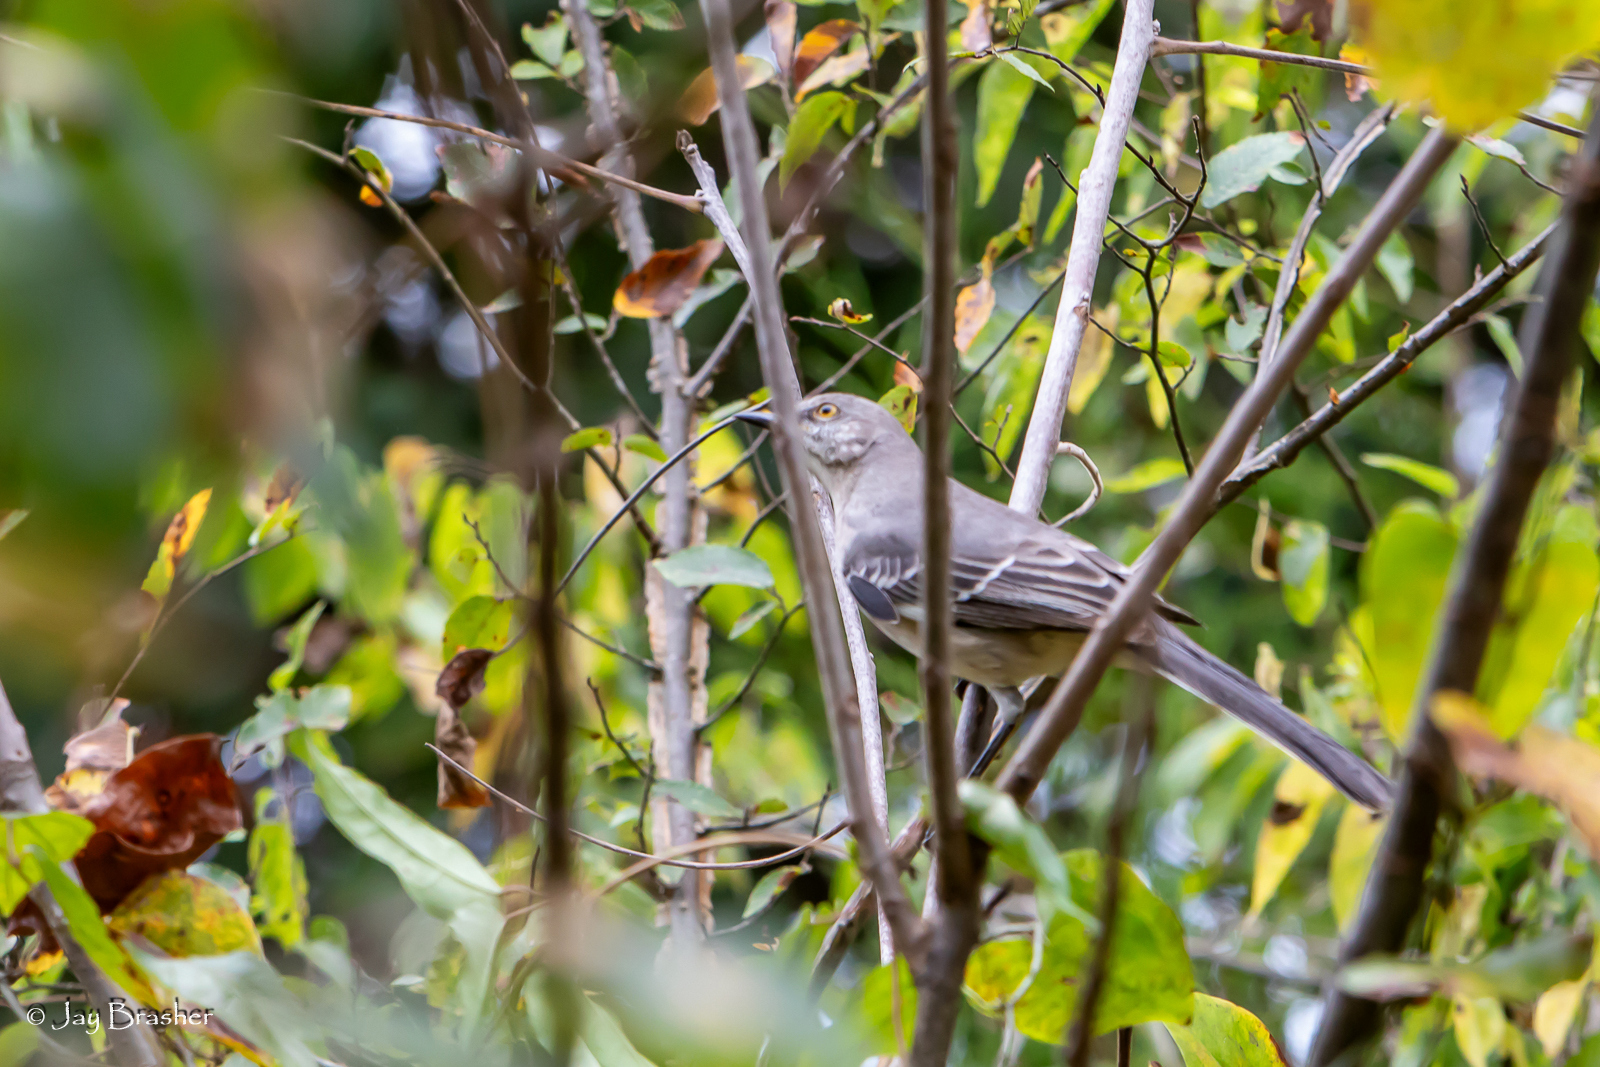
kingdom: Animalia
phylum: Chordata
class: Aves
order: Passeriformes
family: Mimidae
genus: Mimus
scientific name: Mimus polyglottos
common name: Northern mockingbird
